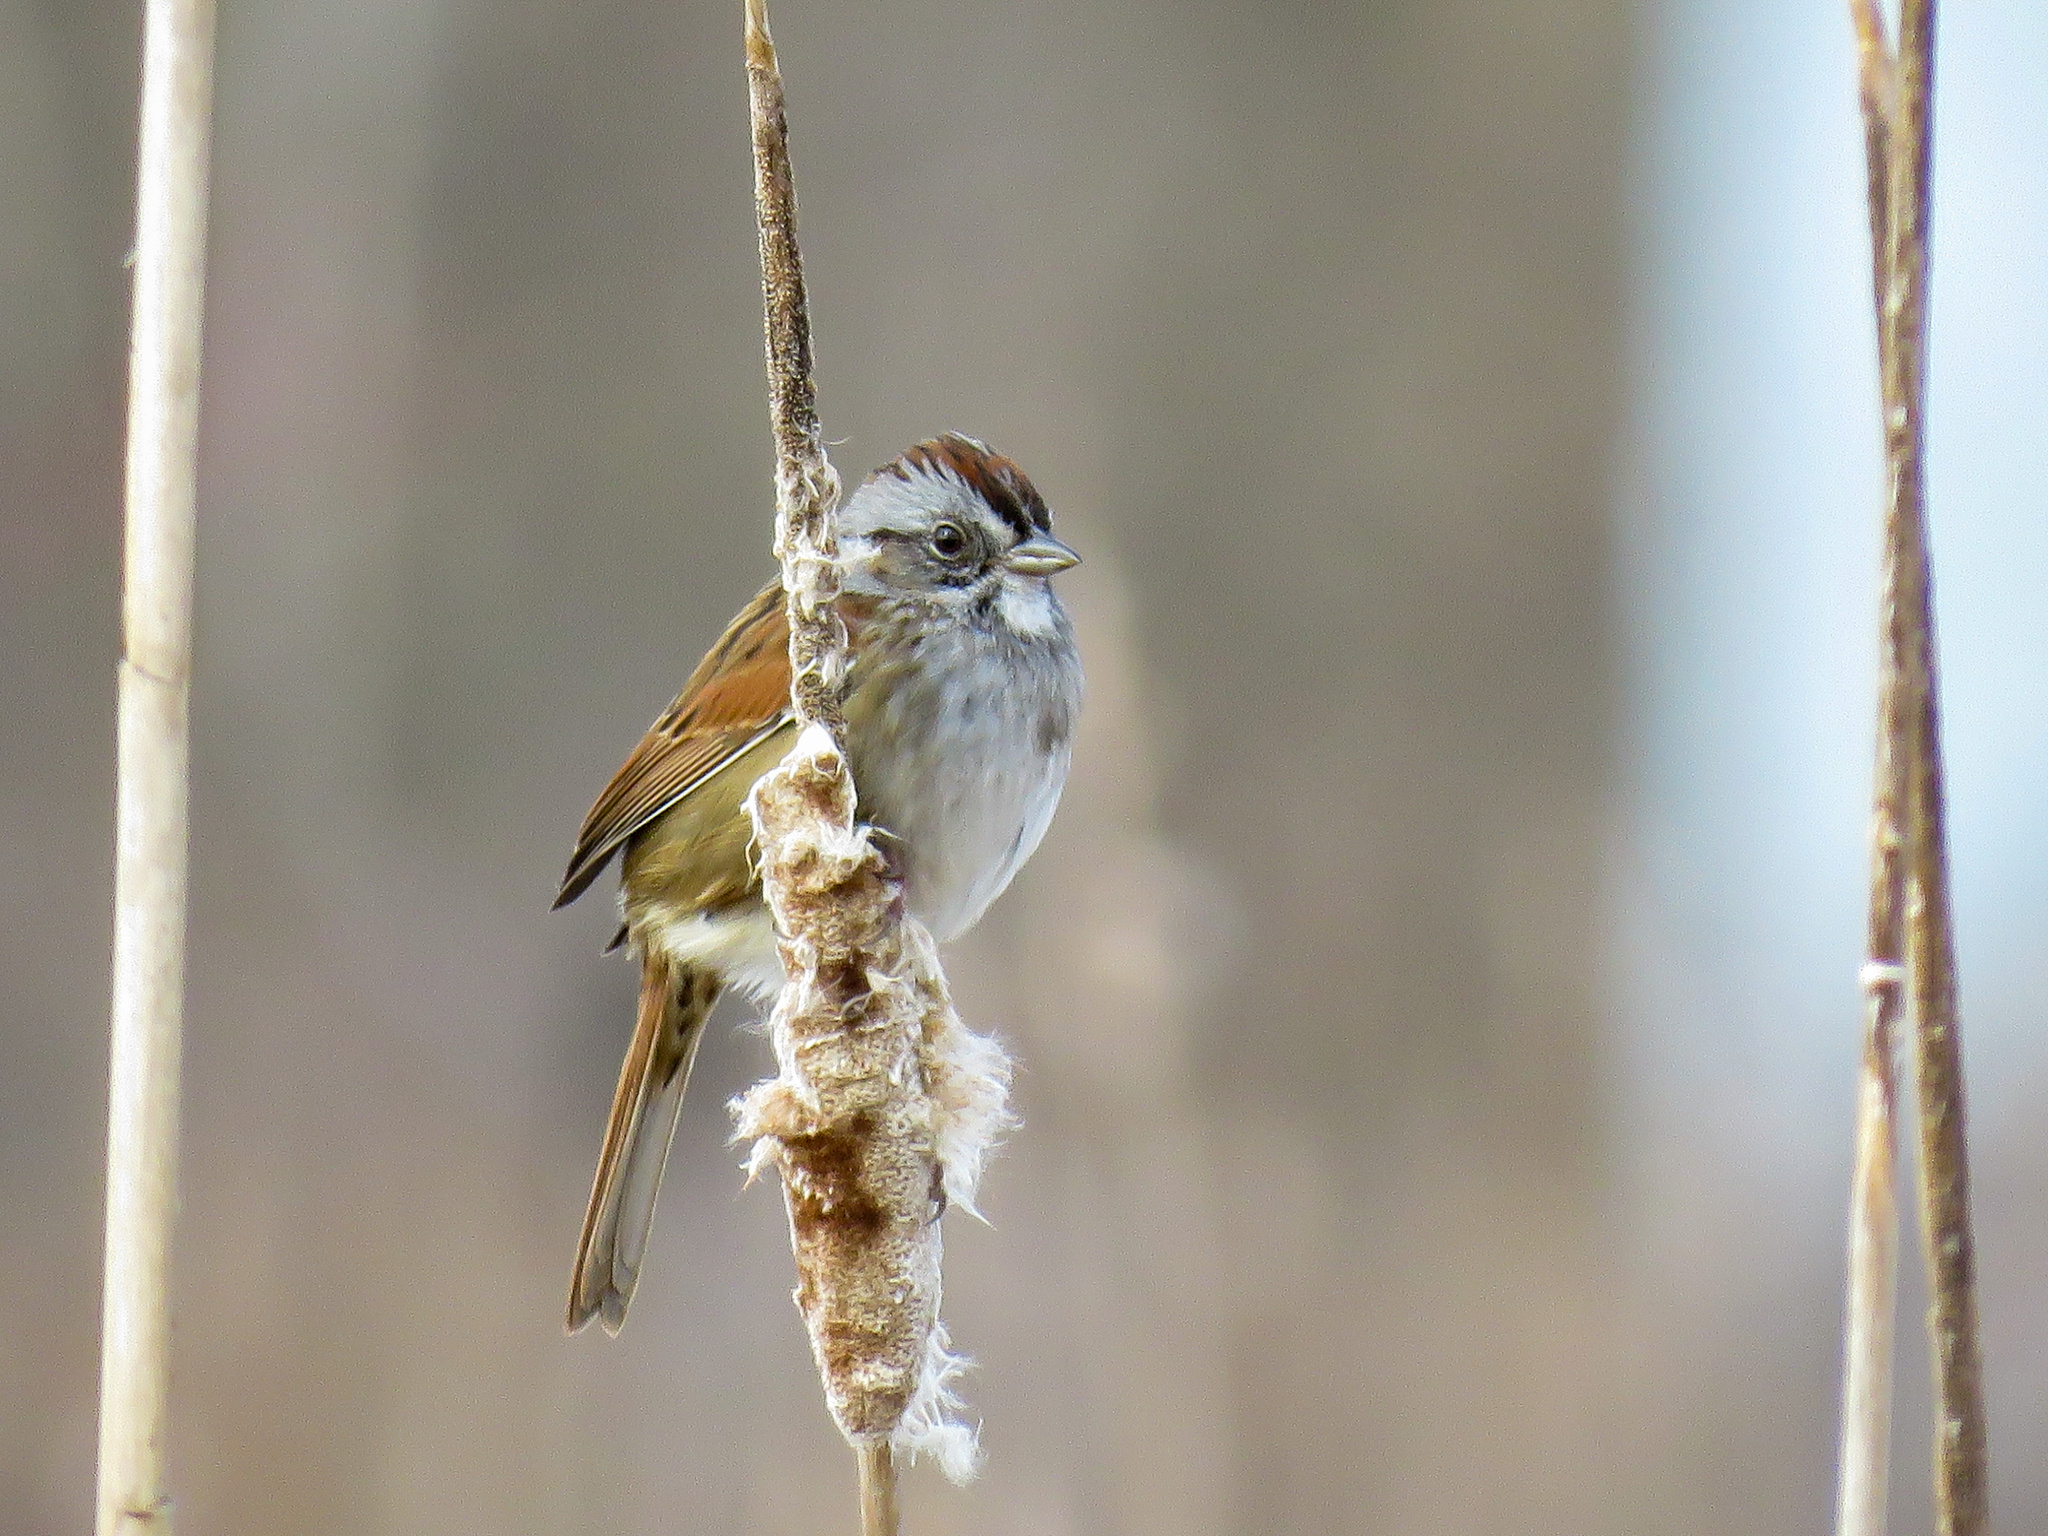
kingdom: Animalia
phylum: Chordata
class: Aves
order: Passeriformes
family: Passerellidae
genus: Melospiza
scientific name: Melospiza georgiana
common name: Swamp sparrow
